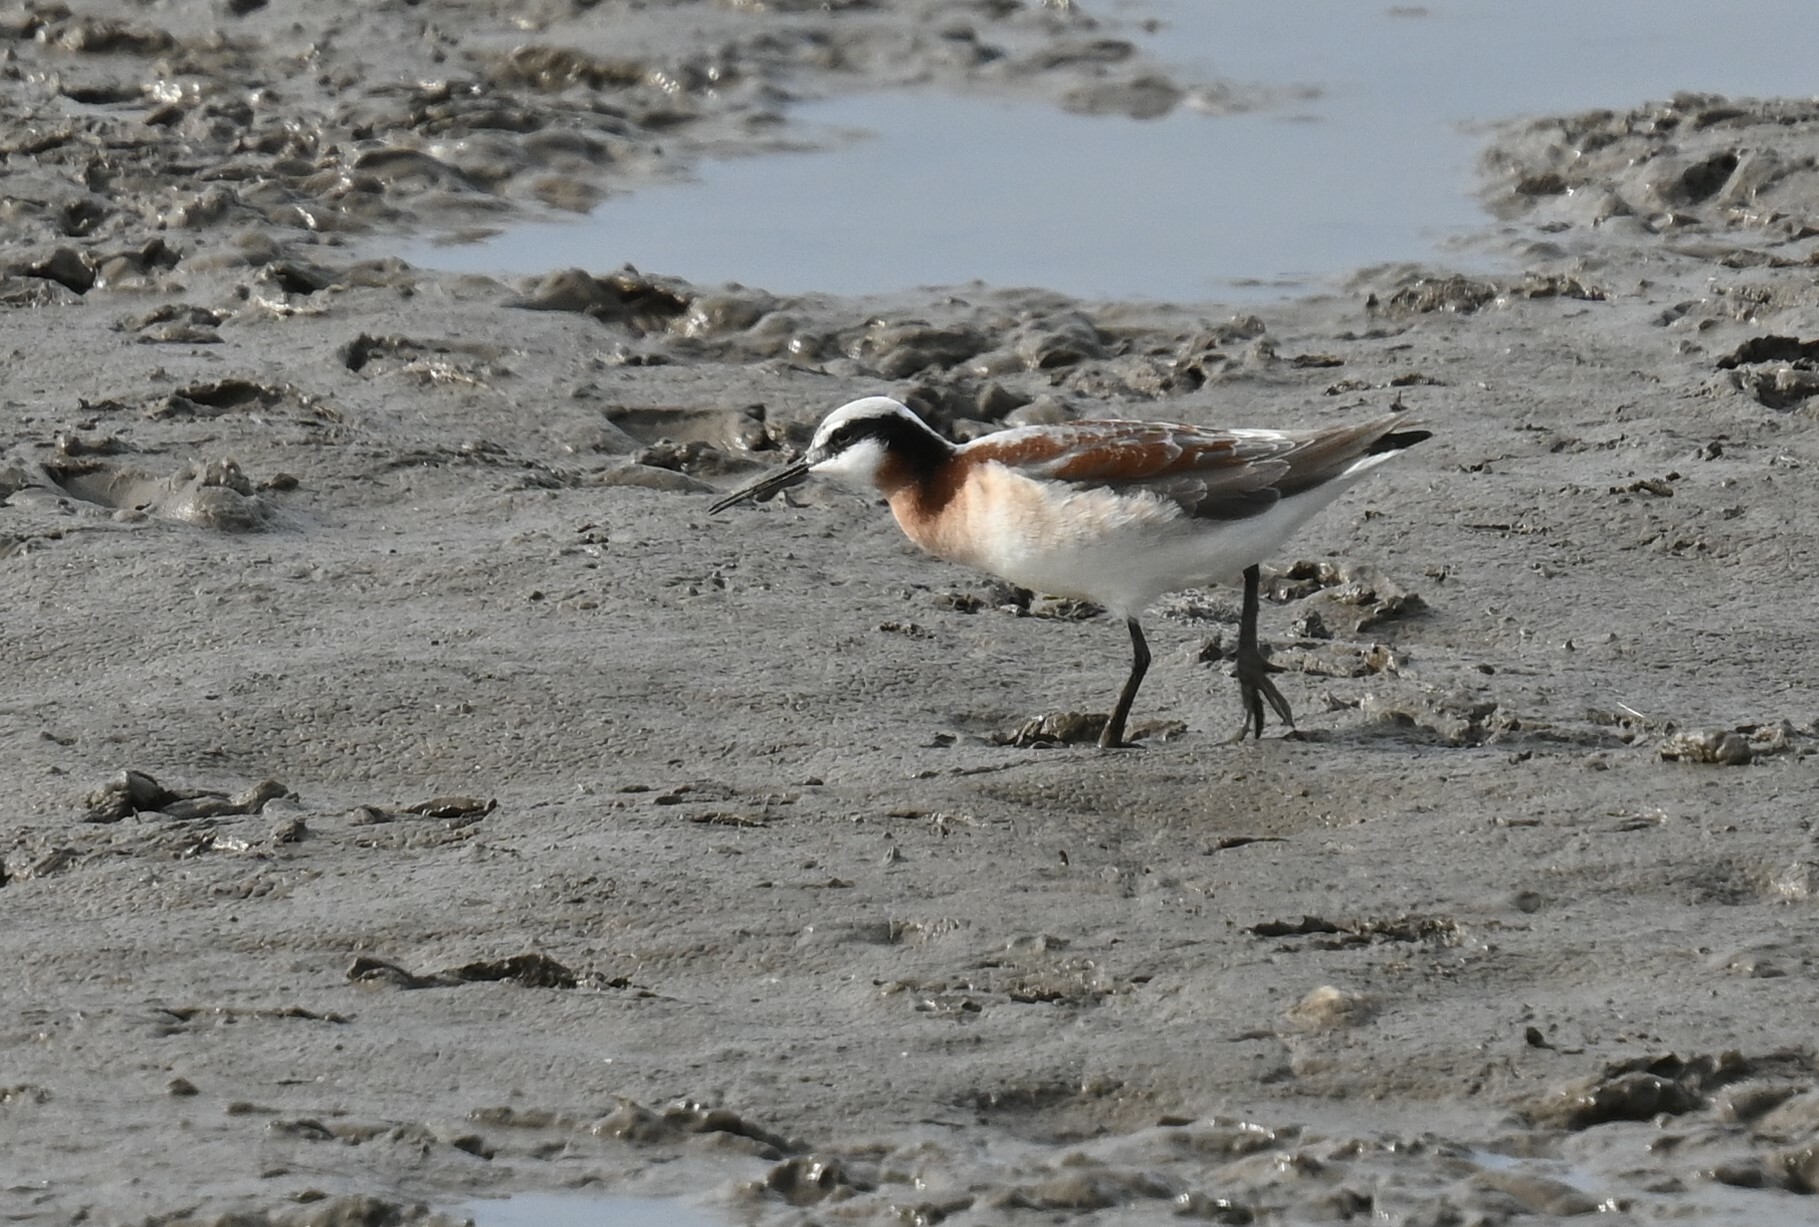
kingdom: Animalia
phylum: Chordata
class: Aves
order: Charadriiformes
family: Scolopacidae
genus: Phalaropus
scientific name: Phalaropus tricolor
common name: Wilson's phalarope
